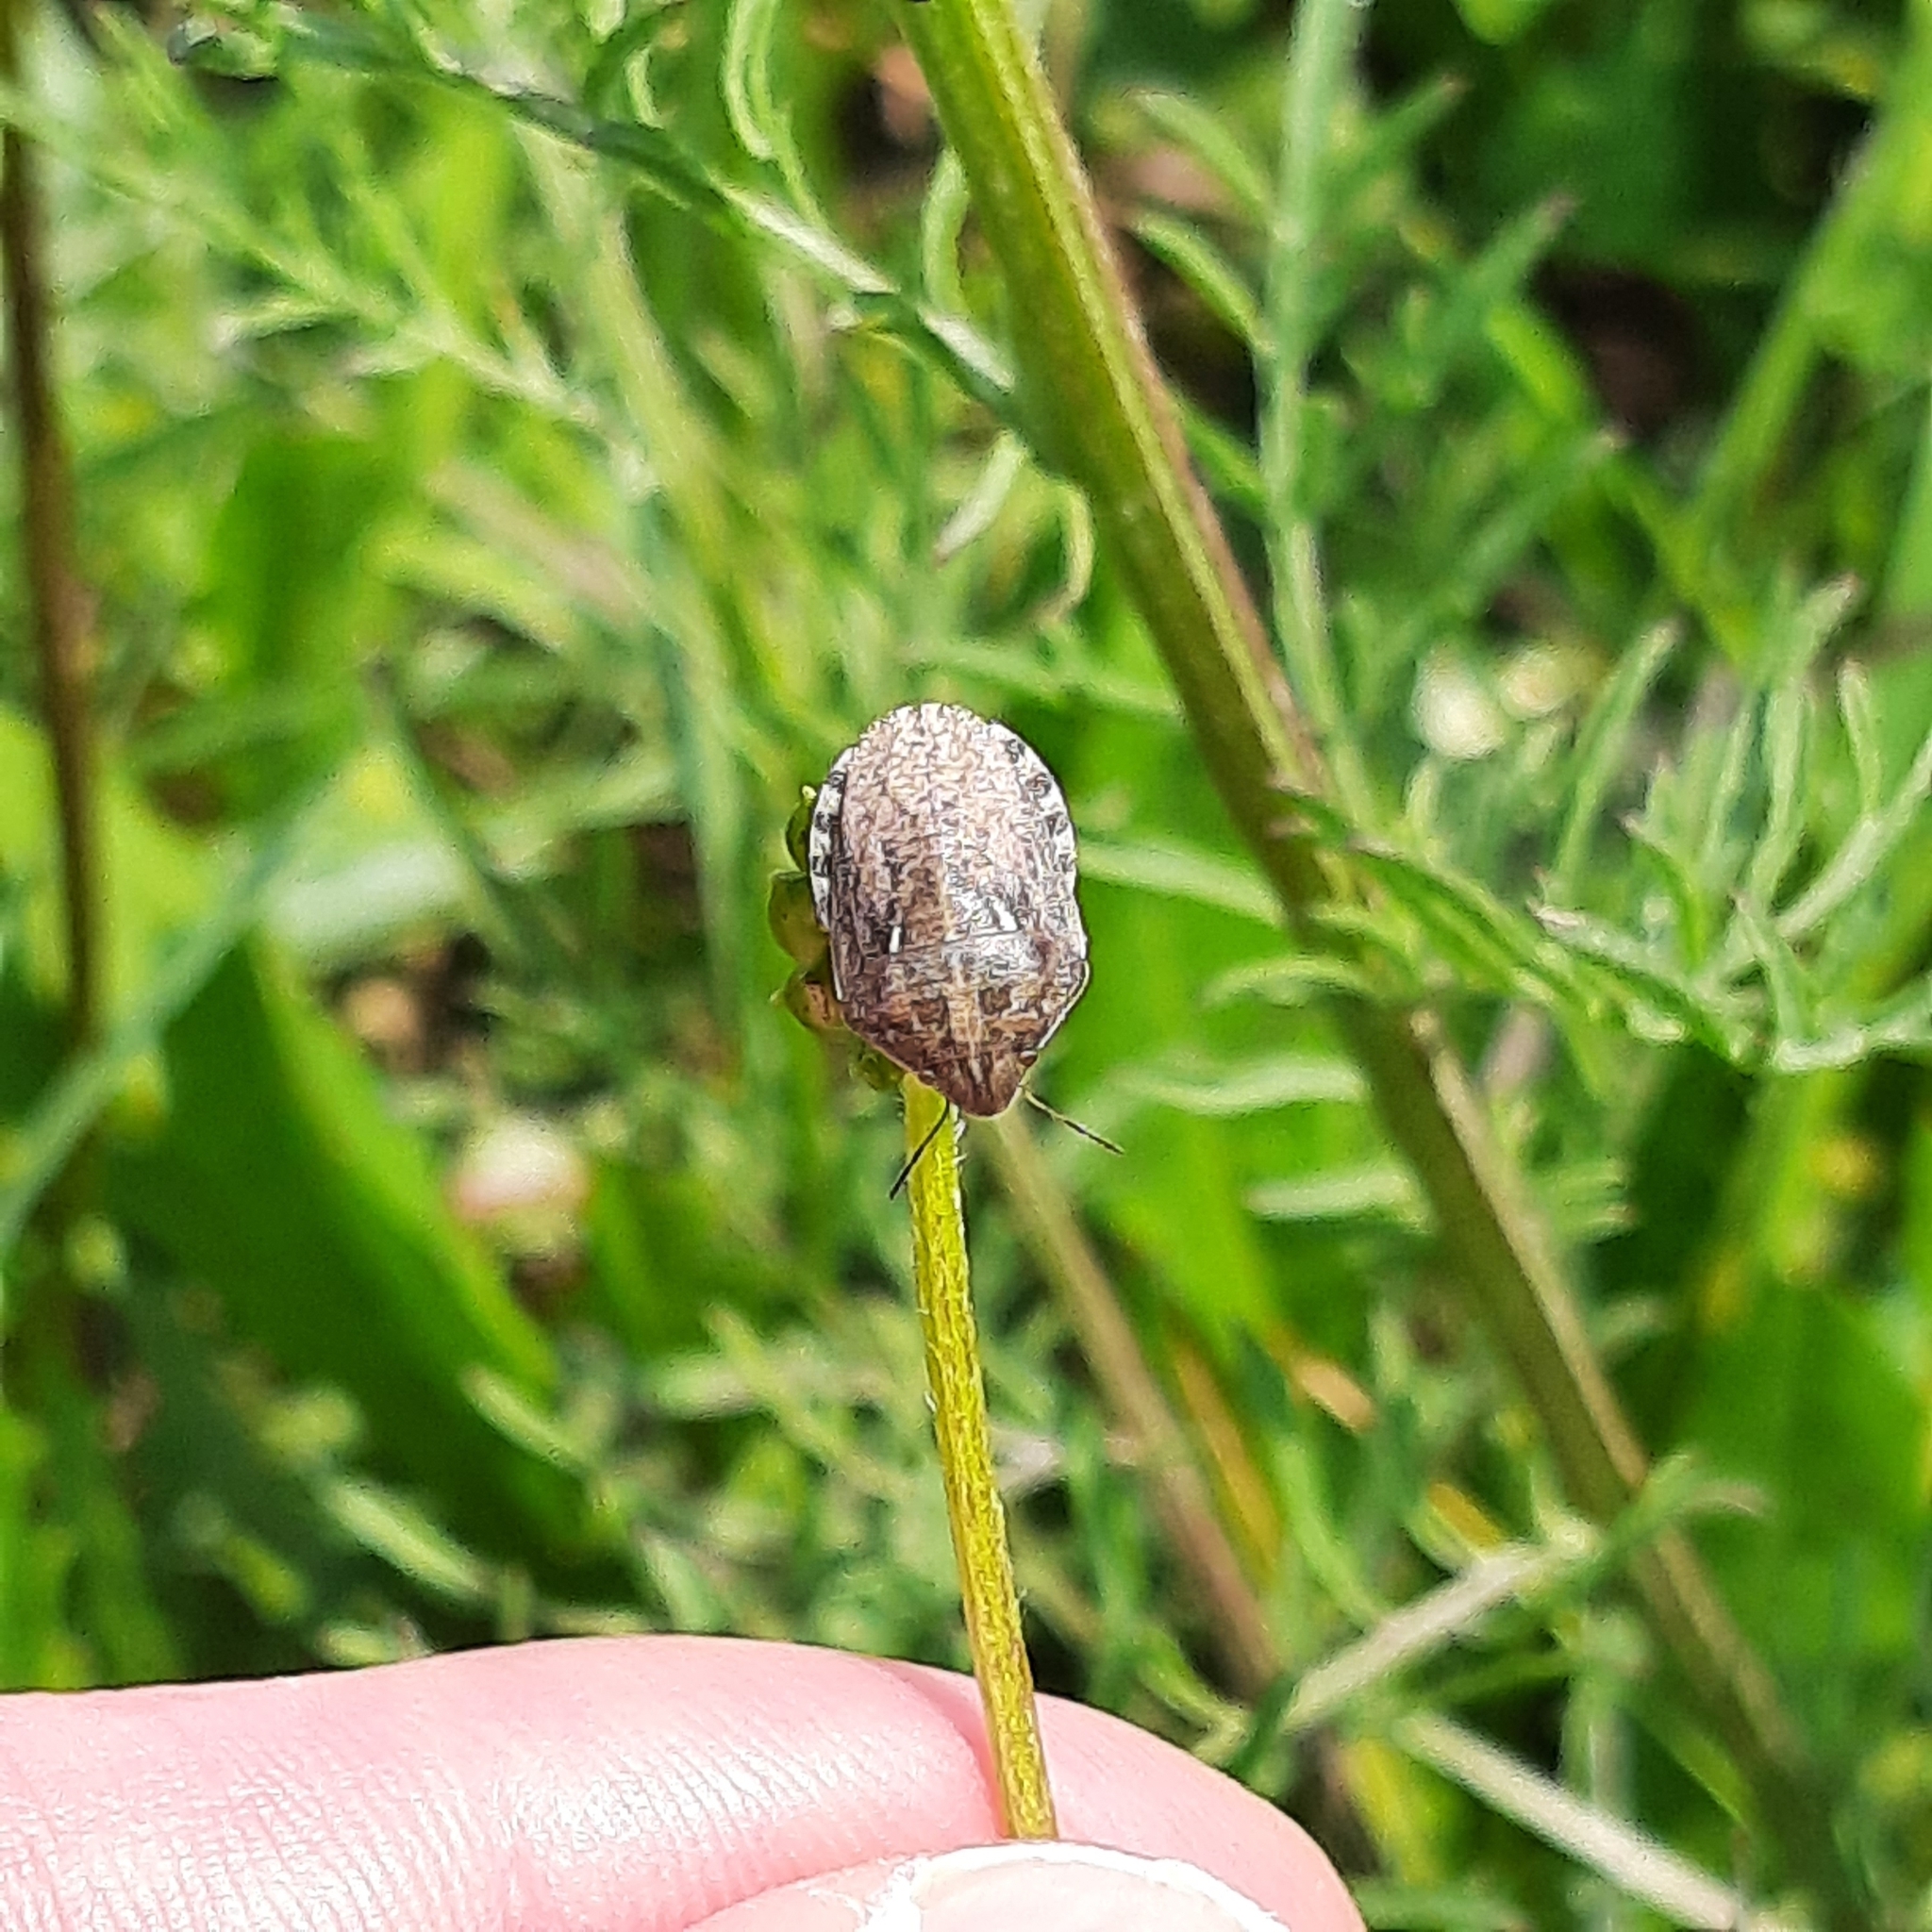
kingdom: Animalia
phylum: Arthropoda
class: Insecta
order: Hemiptera
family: Scutelleridae
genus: Eurygaster
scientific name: Eurygaster maura
